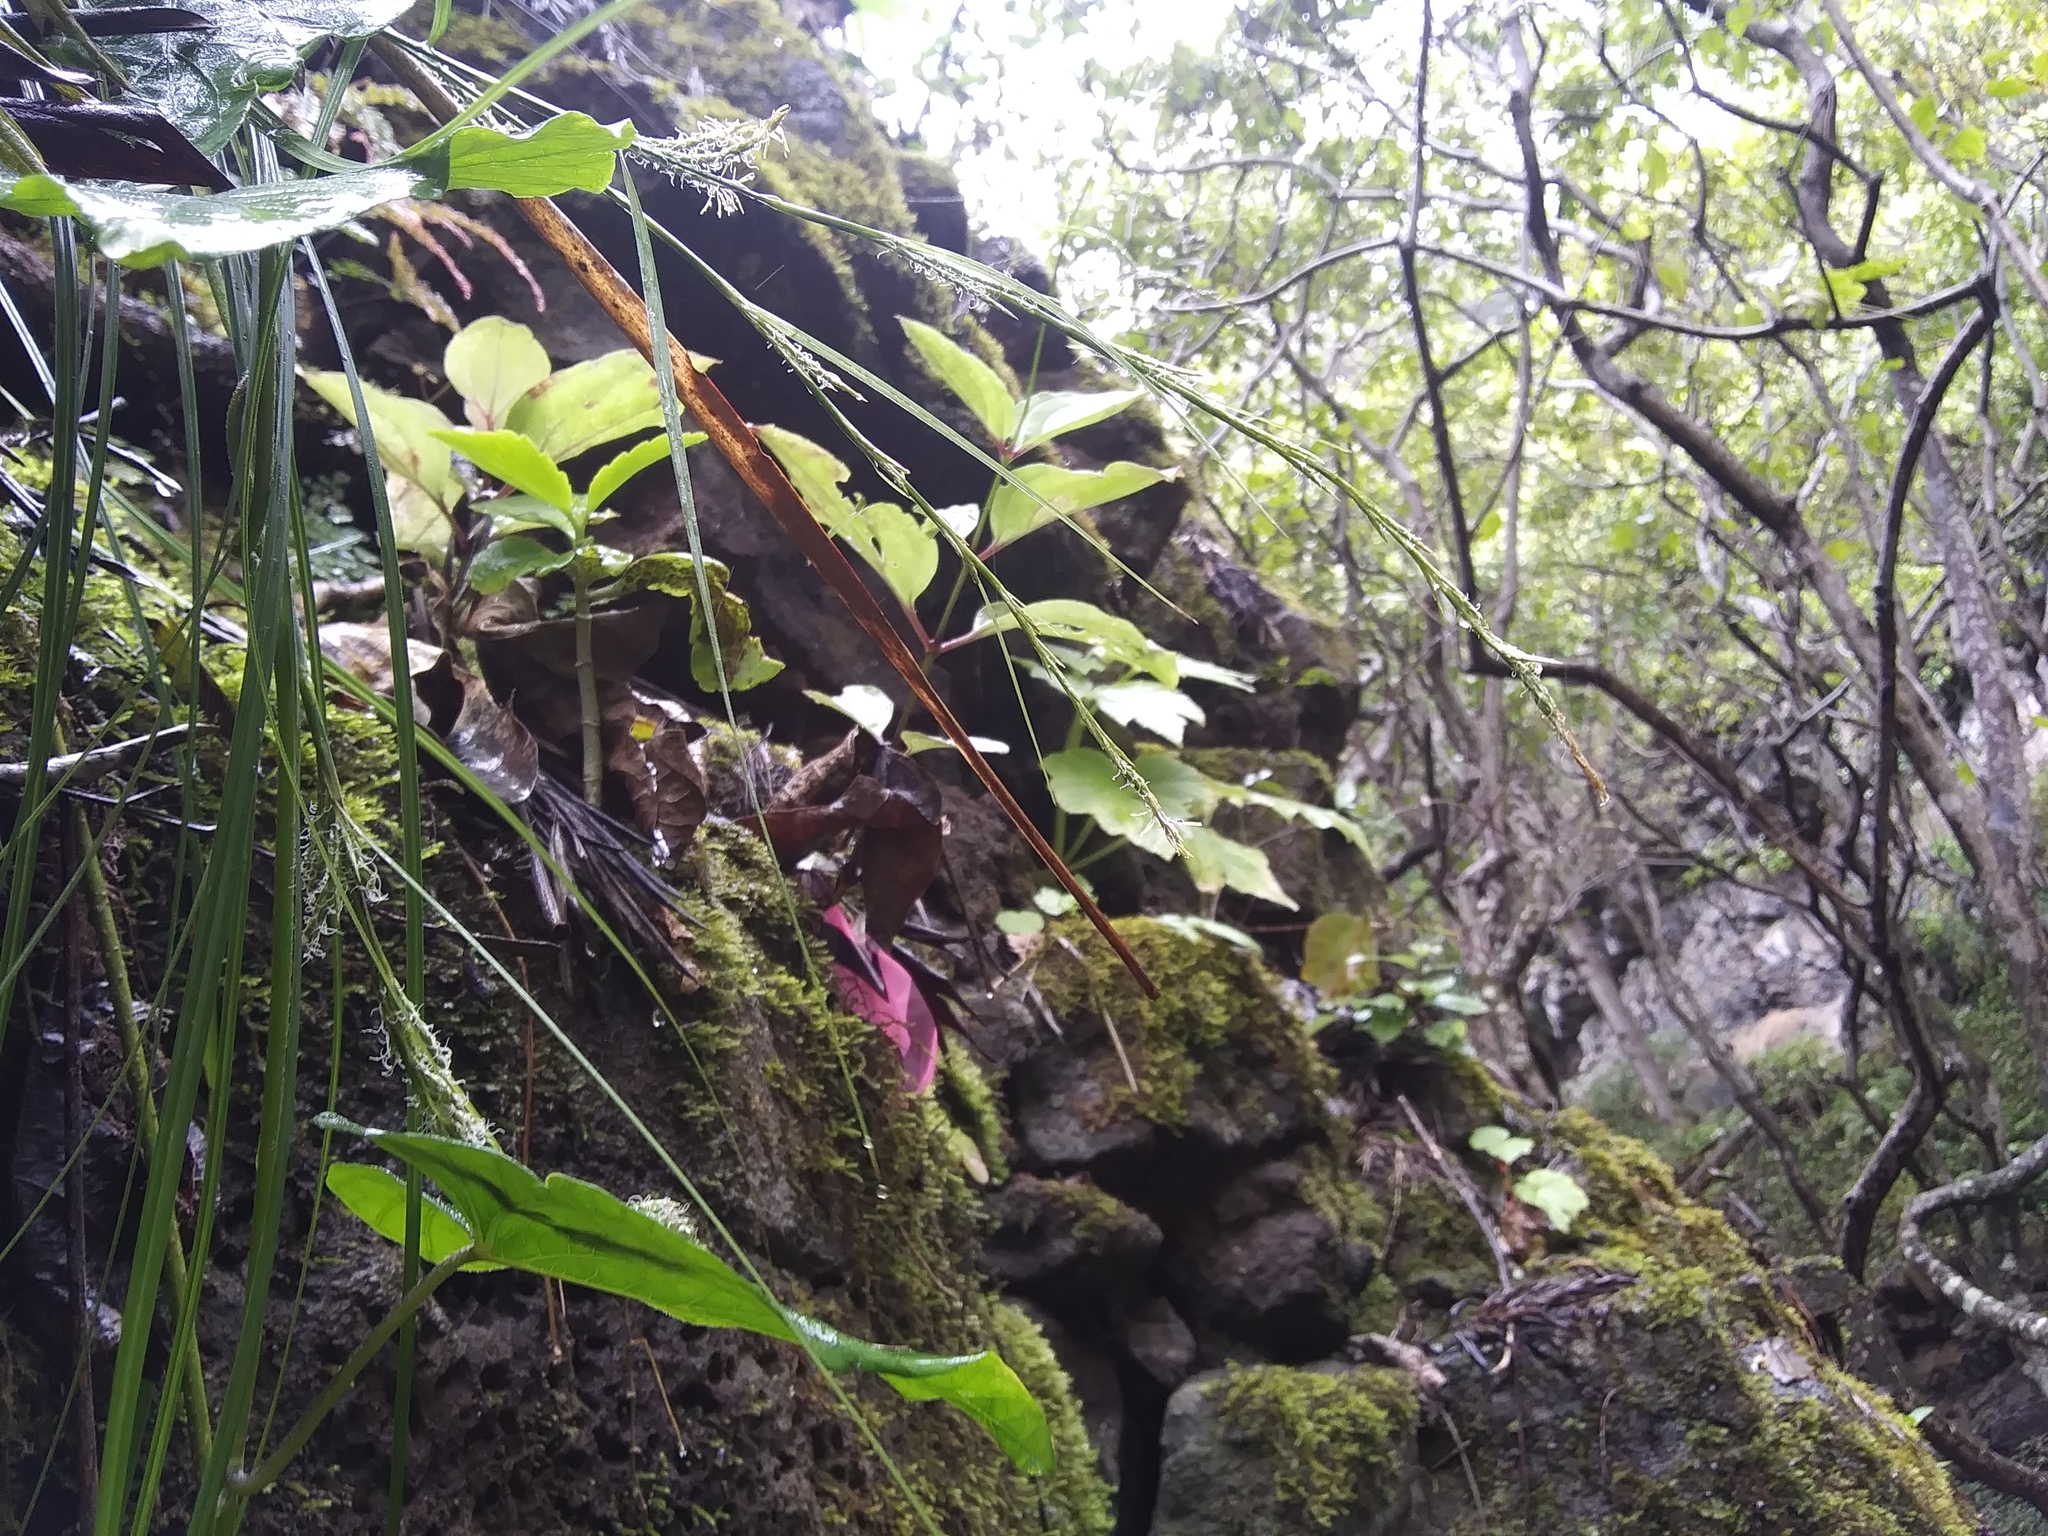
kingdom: Plantae
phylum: Tracheophyta
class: Magnoliopsida
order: Caryophyllales
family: Caryophyllaceae
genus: Schiedea
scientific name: Schiedea membranacea
